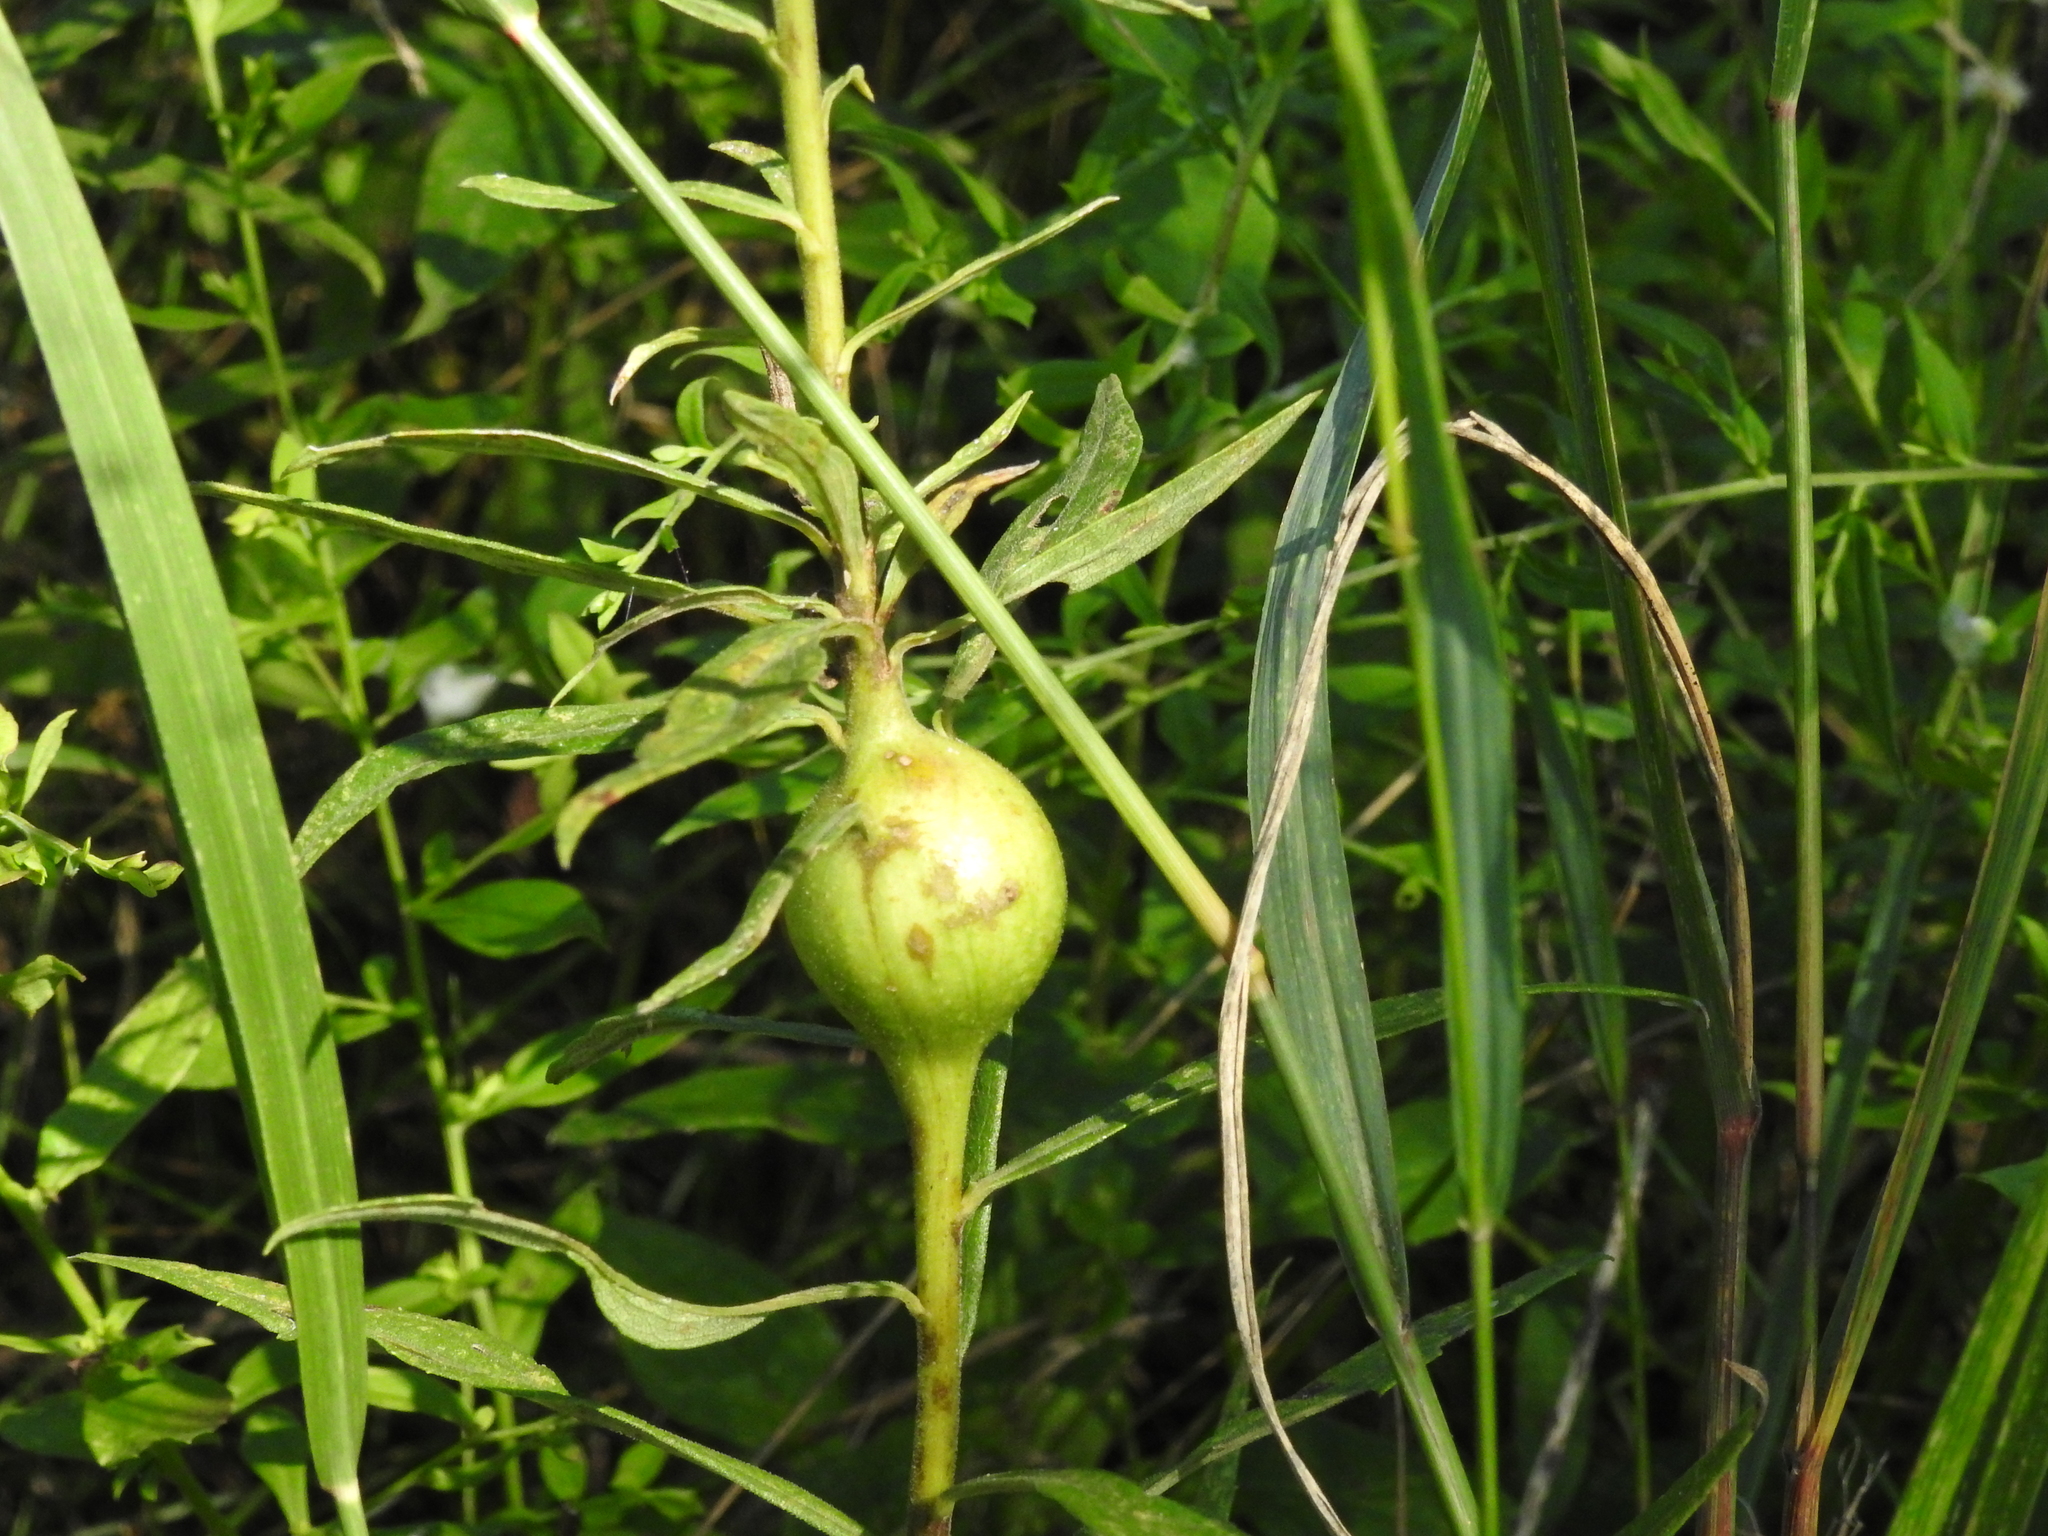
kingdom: Animalia
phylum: Arthropoda
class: Insecta
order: Diptera
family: Tephritidae
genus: Eurosta
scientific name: Eurosta solidaginis
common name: Goldenrod gall fly
